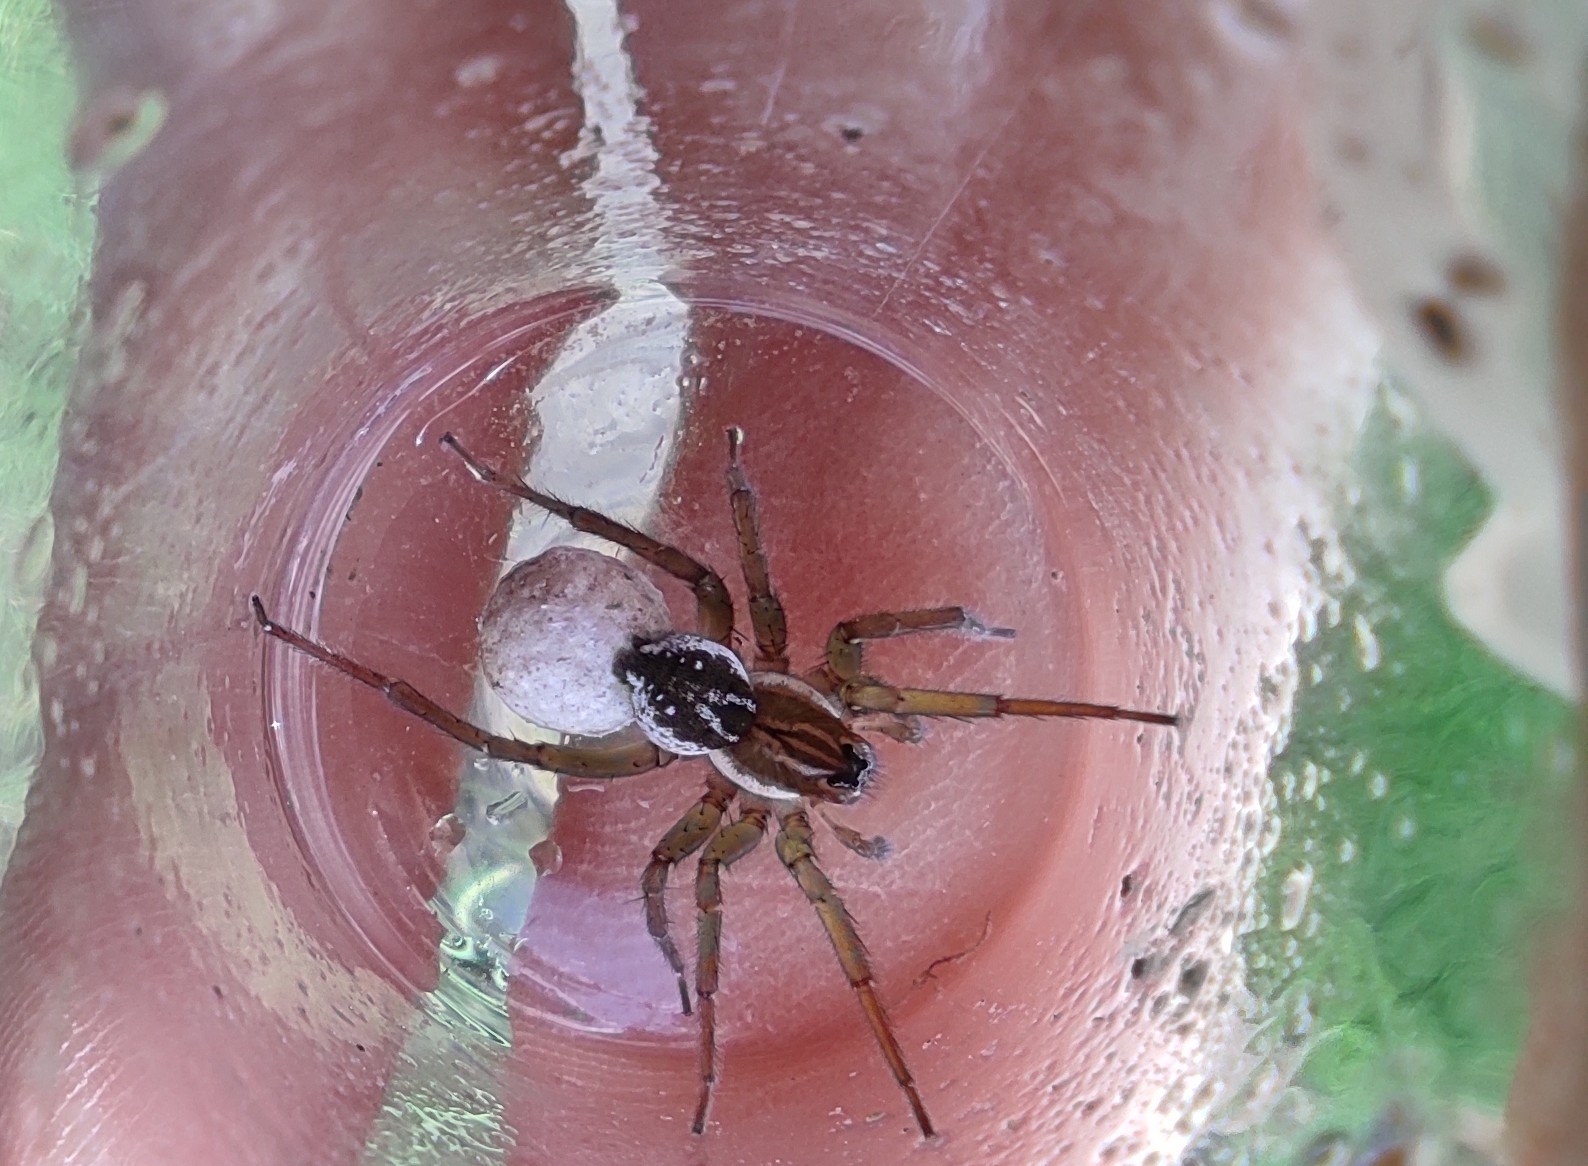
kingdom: Animalia
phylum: Arthropoda
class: Arachnida
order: Araneae
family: Lycosidae
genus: Pirata
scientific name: Pirata piraticus
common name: Pirate otter spider
